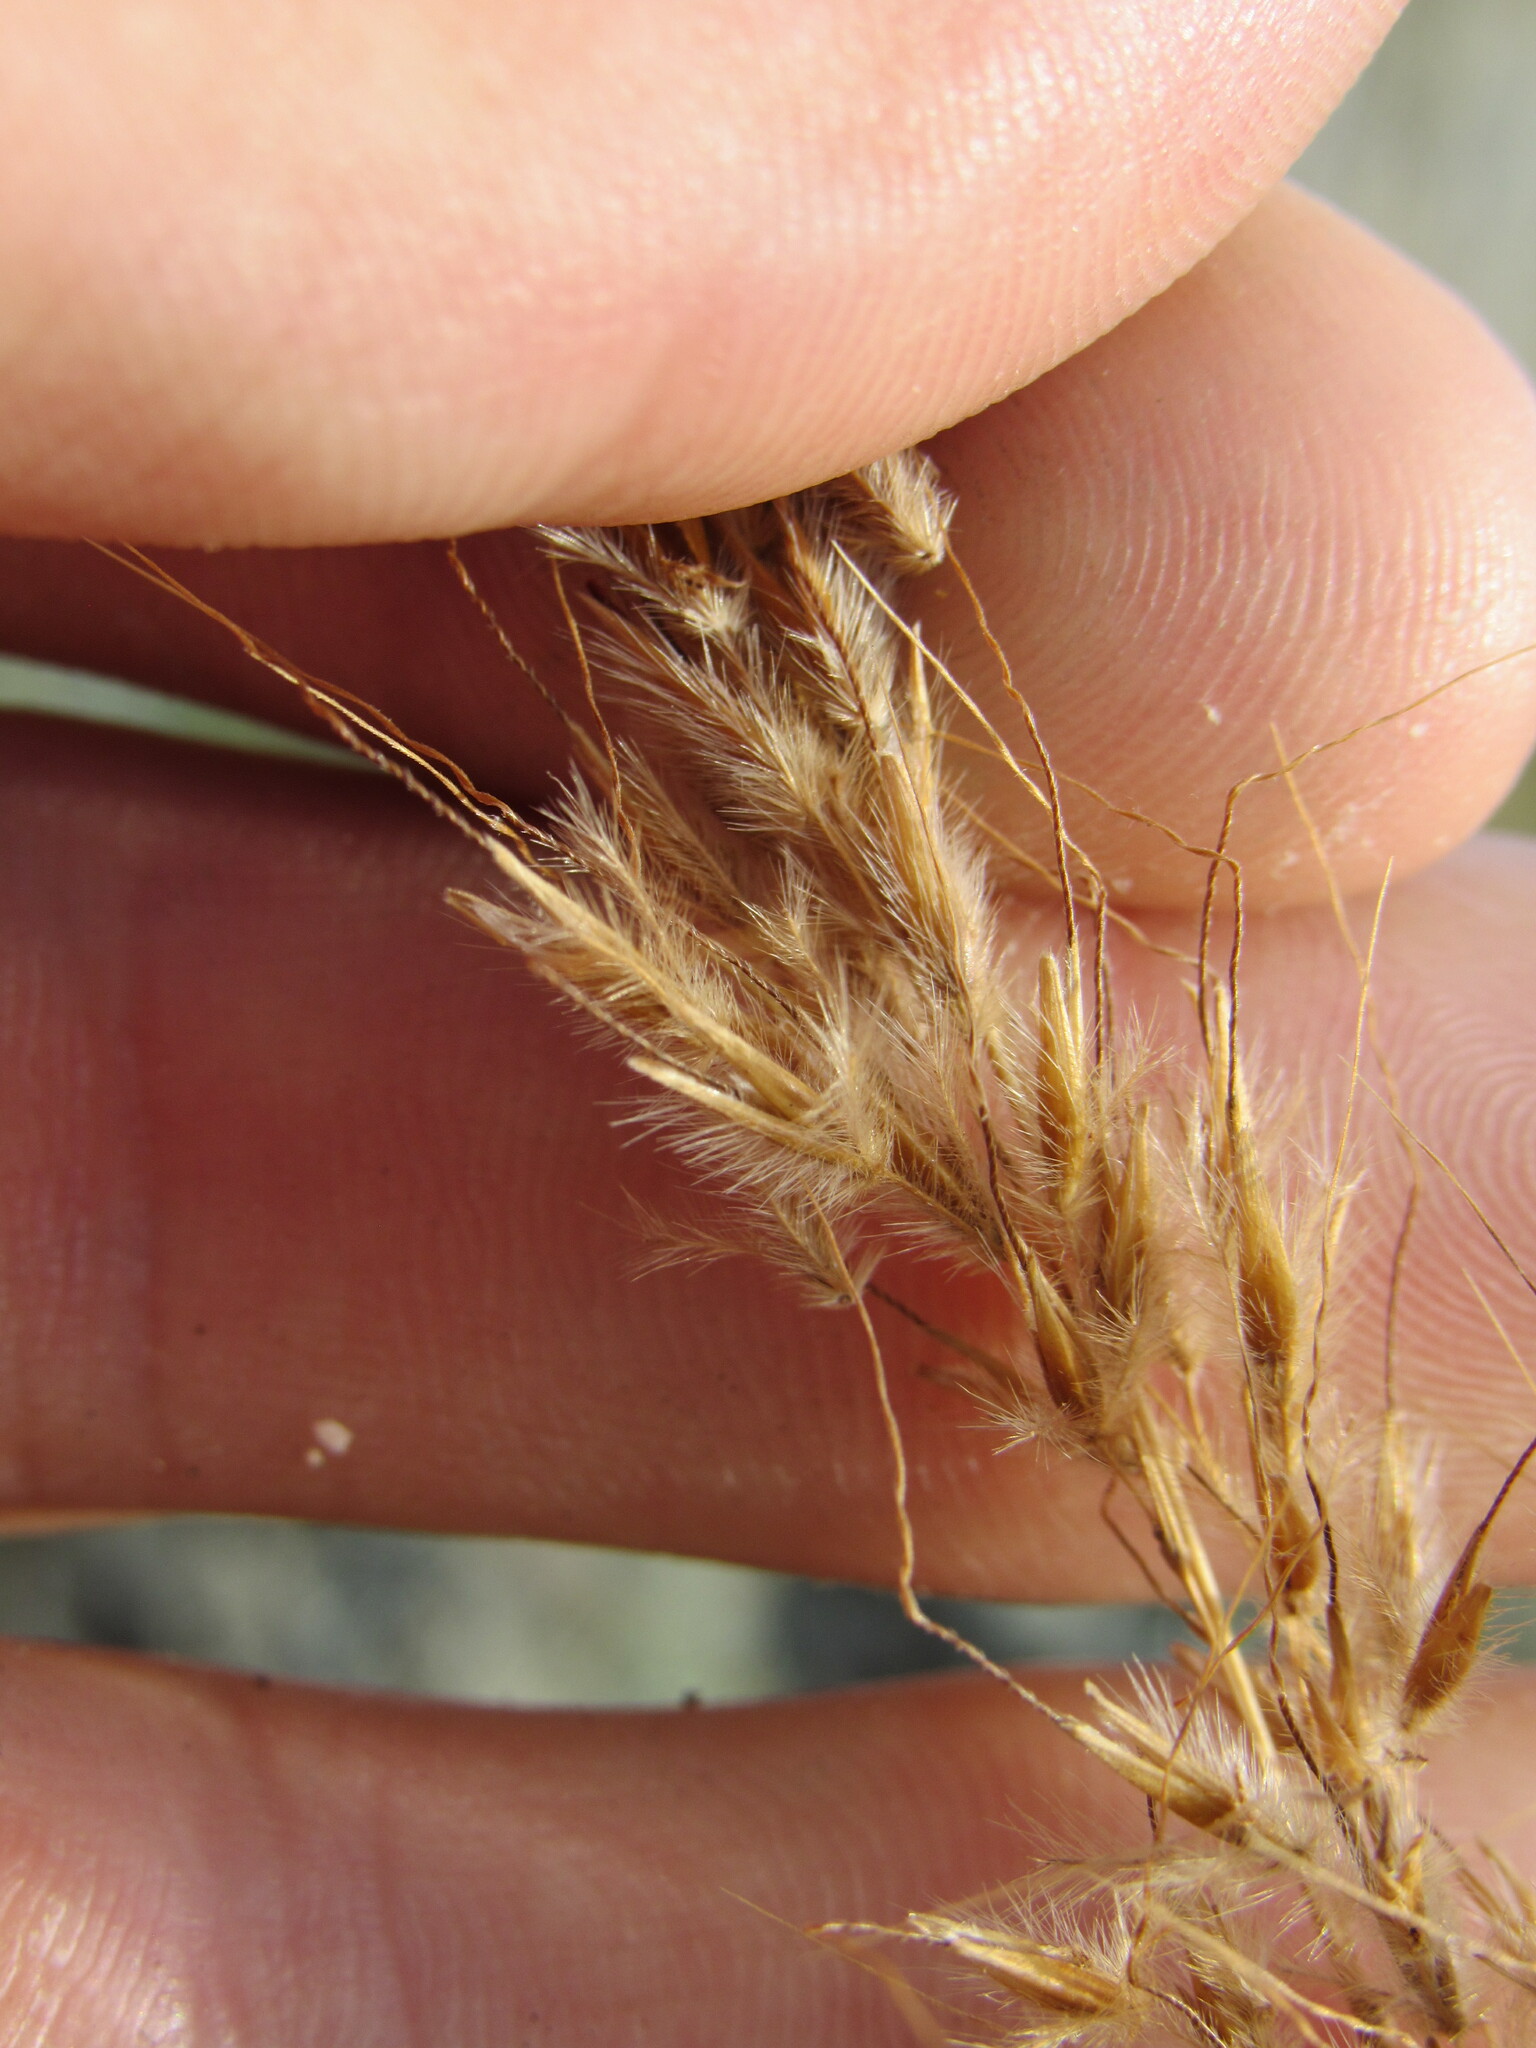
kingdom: Plantae
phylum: Tracheophyta
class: Liliopsida
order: Poales
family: Poaceae
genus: Sorghastrum
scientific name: Sorghastrum nutans
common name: Indian grass
